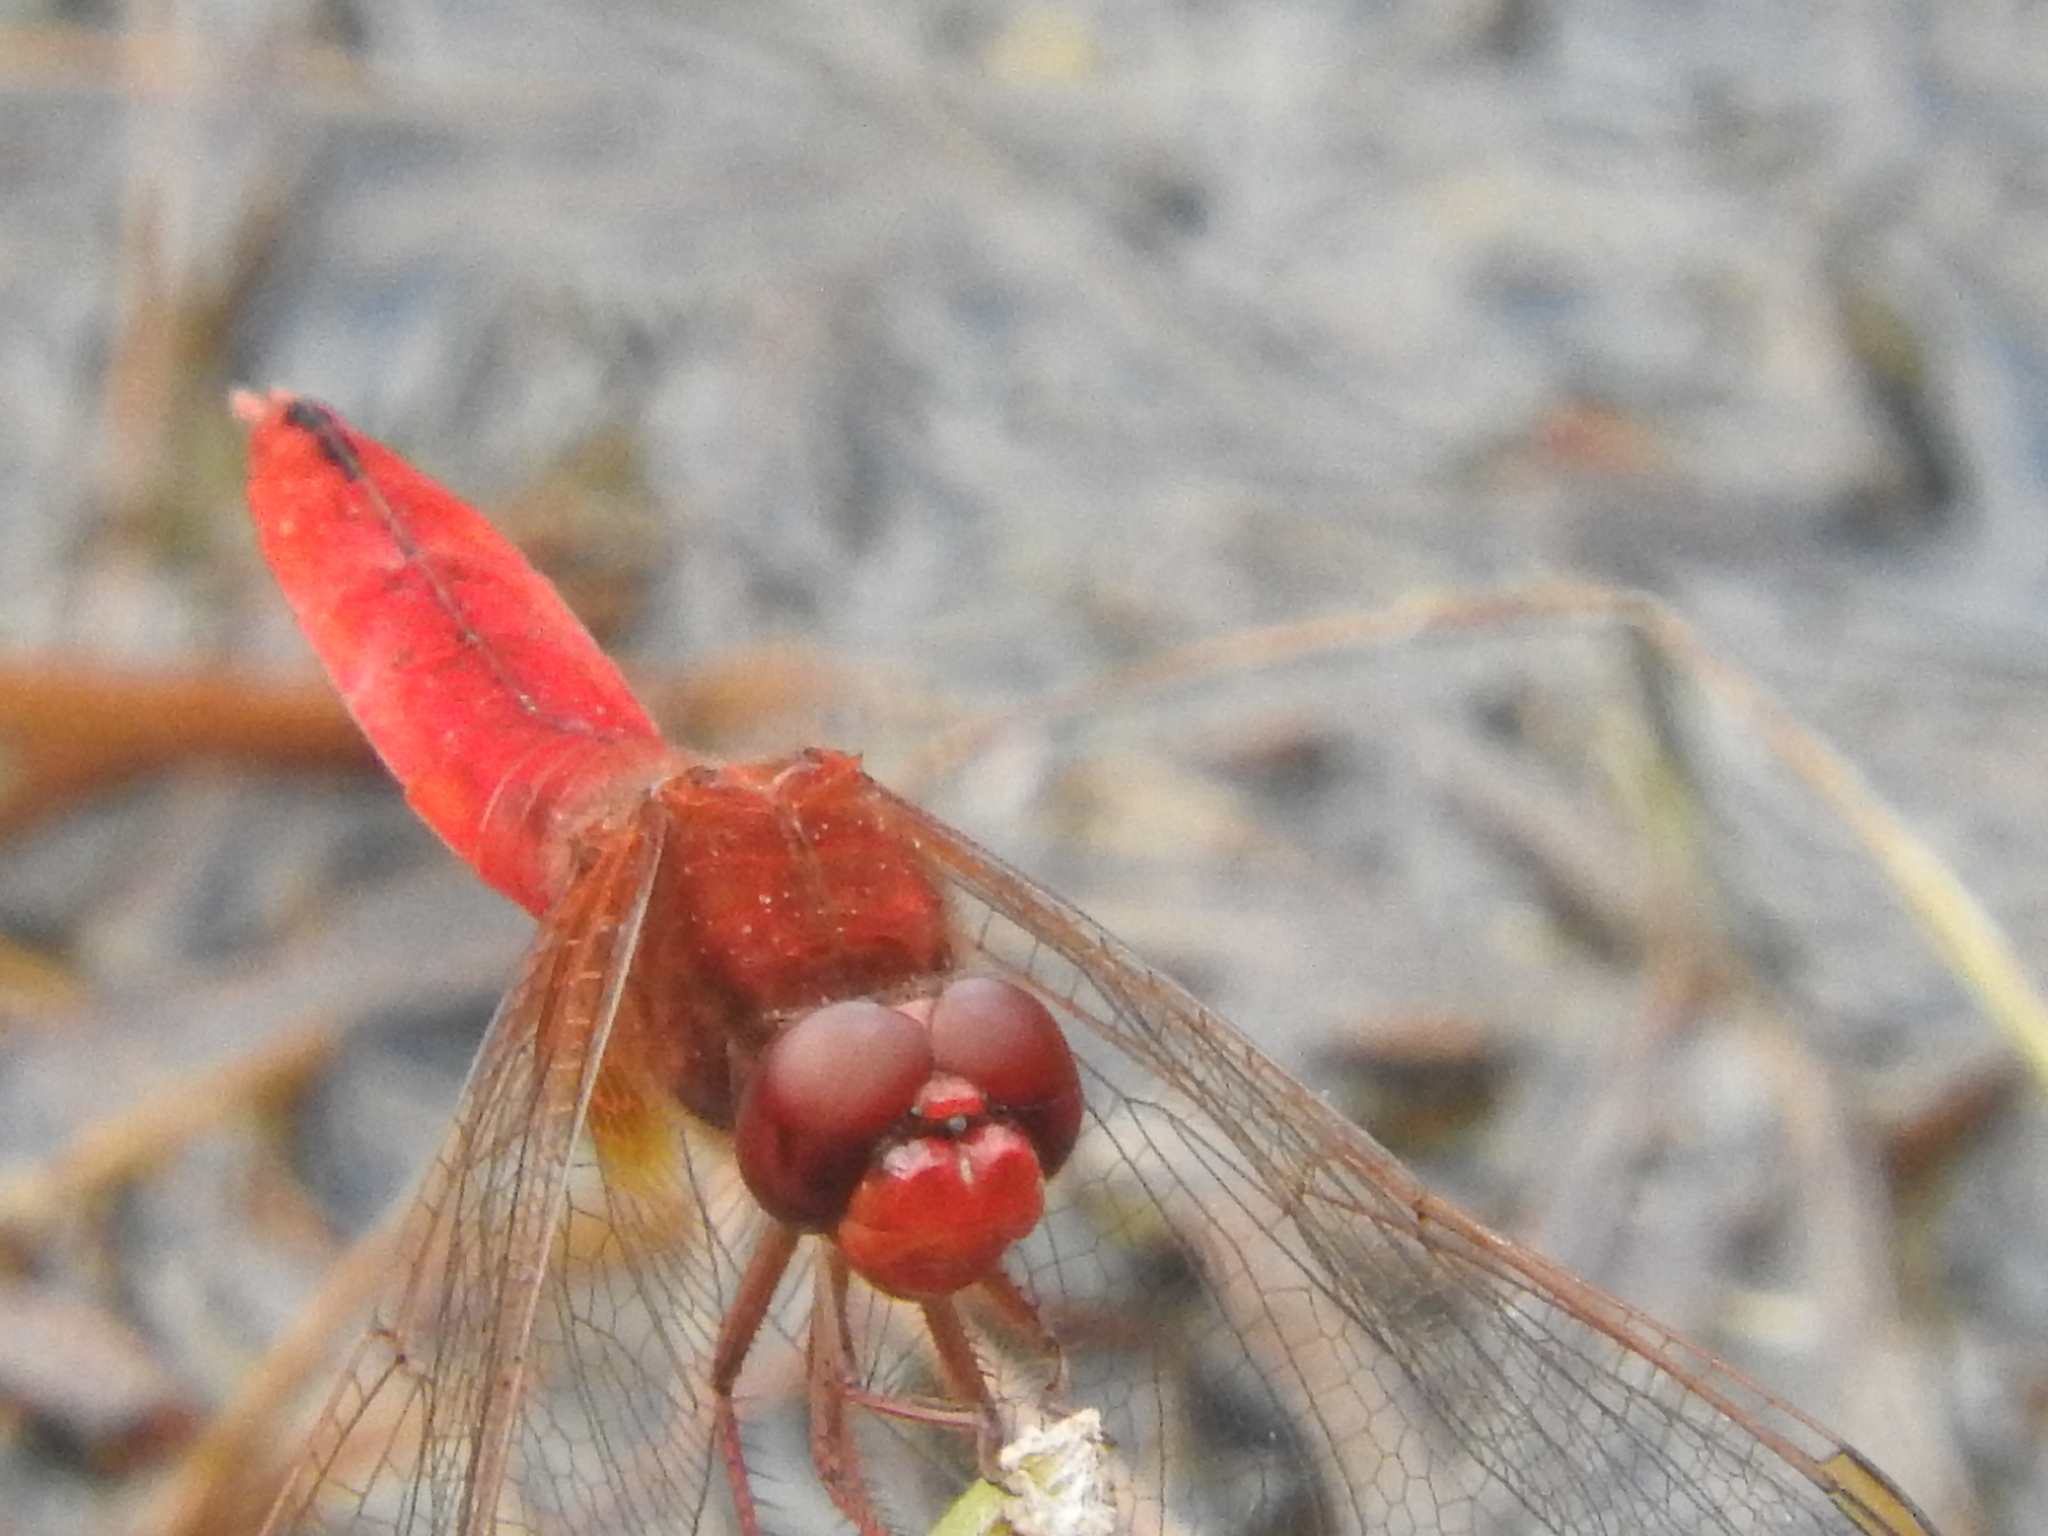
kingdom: Animalia
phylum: Arthropoda
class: Insecta
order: Odonata
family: Libellulidae
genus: Crocothemis
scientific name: Crocothemis erythraea
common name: Scarlet dragonfly
